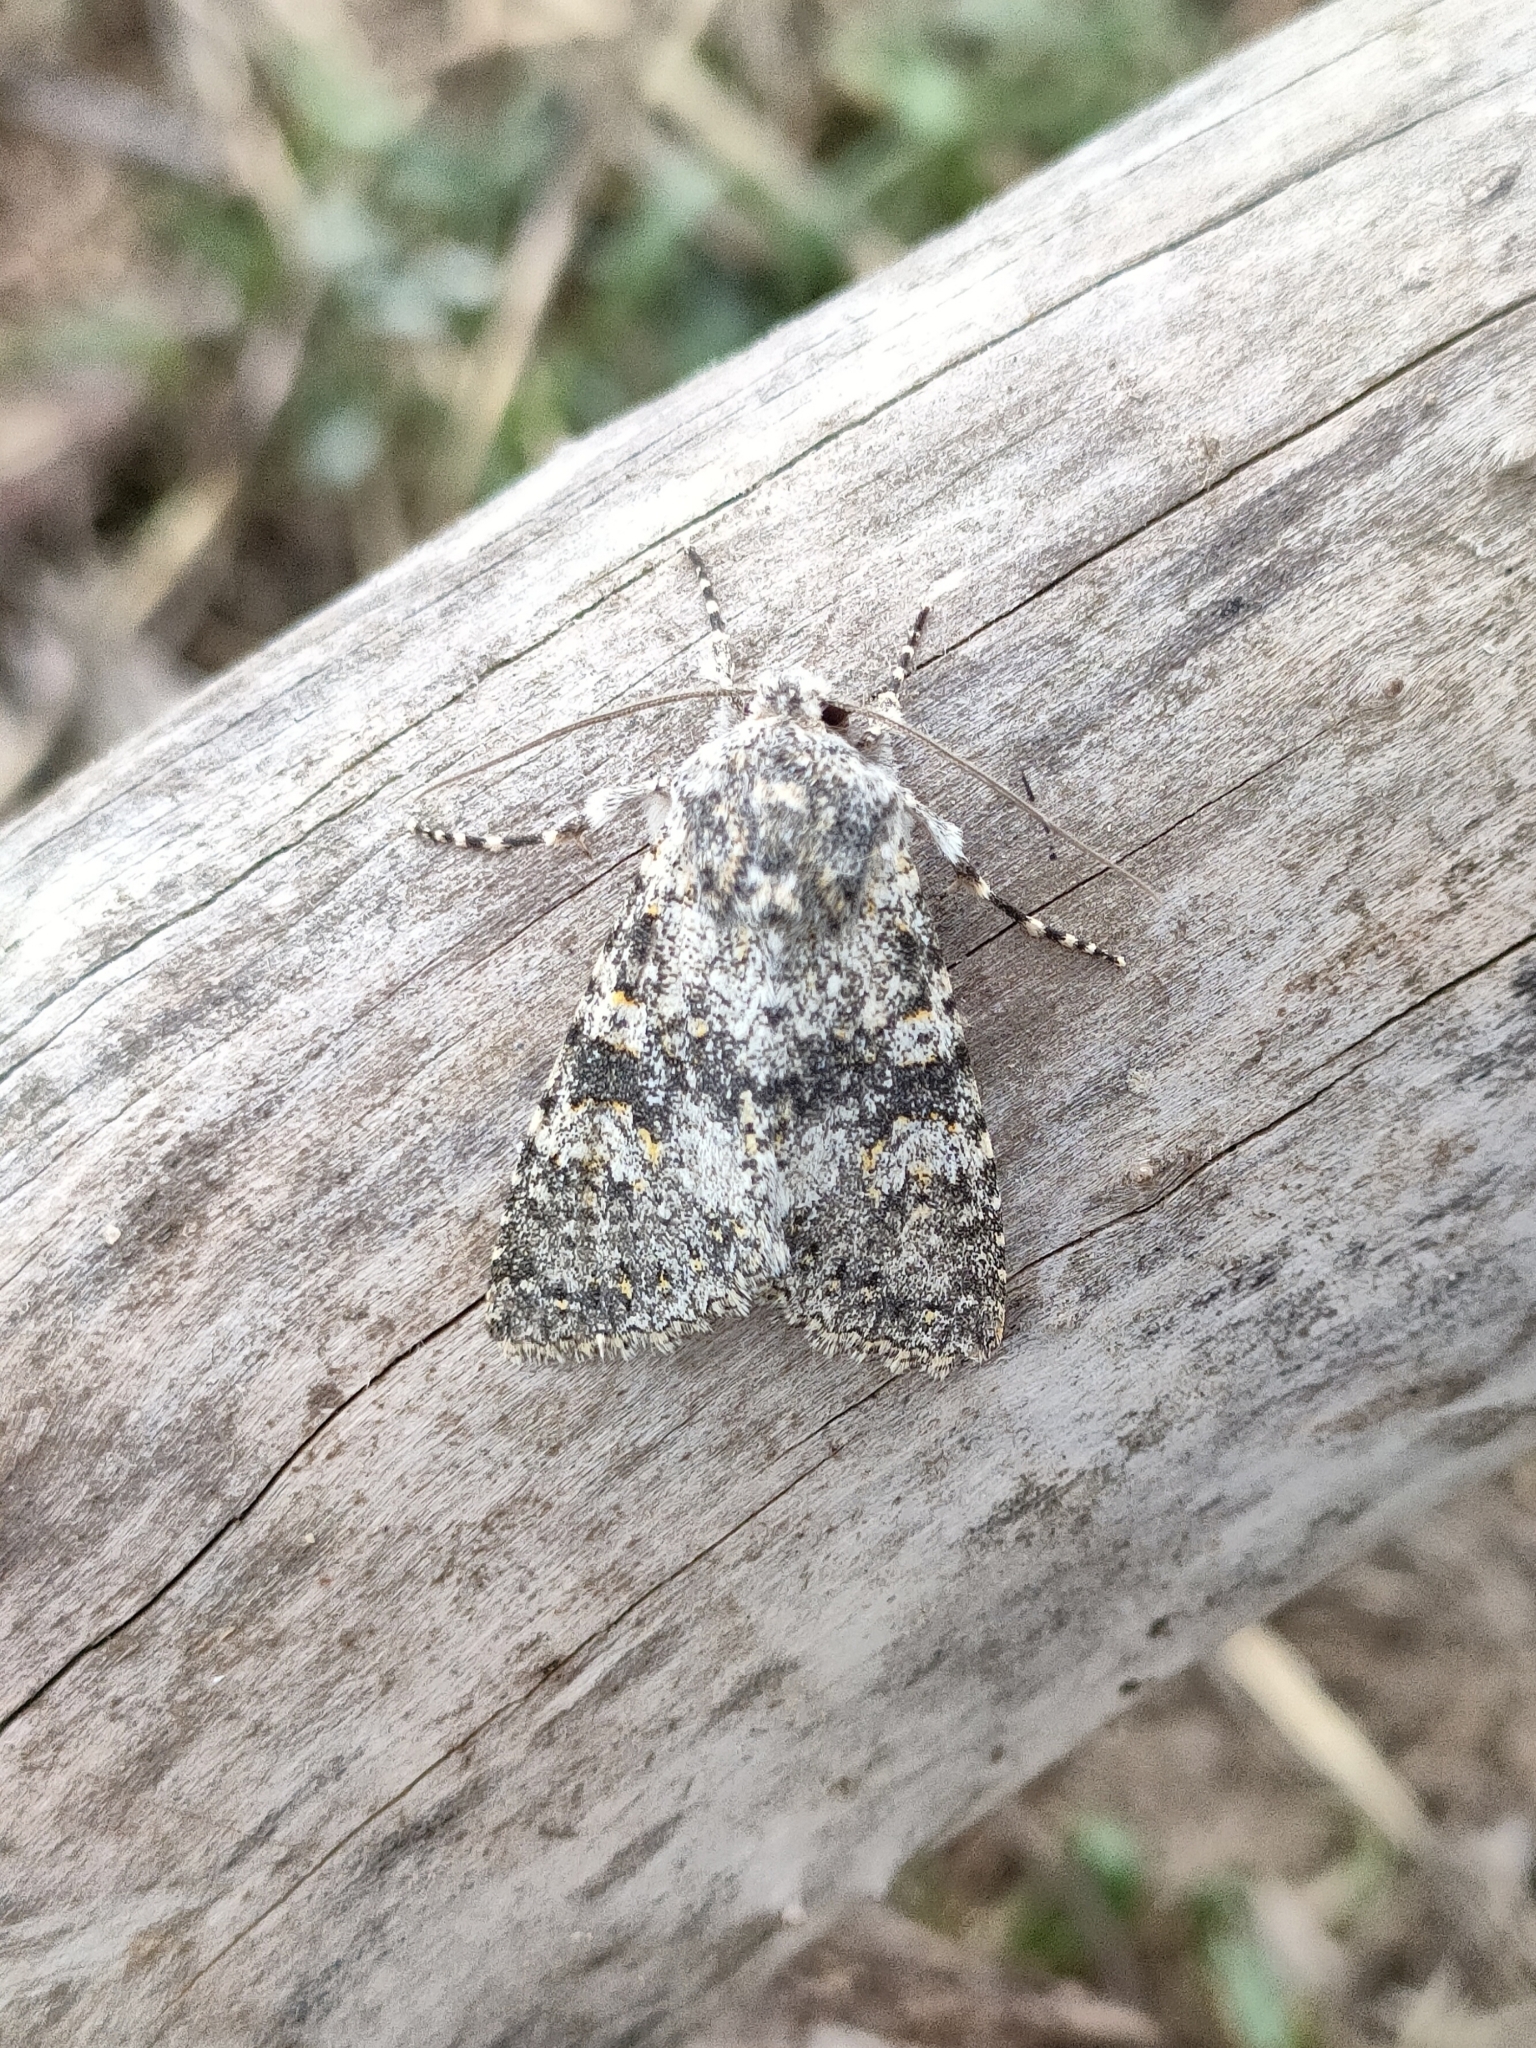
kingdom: Animalia
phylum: Arthropoda
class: Insecta
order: Lepidoptera
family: Noctuidae
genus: Polymixis
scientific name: Polymixis flavicincta
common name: Large ranunculus
